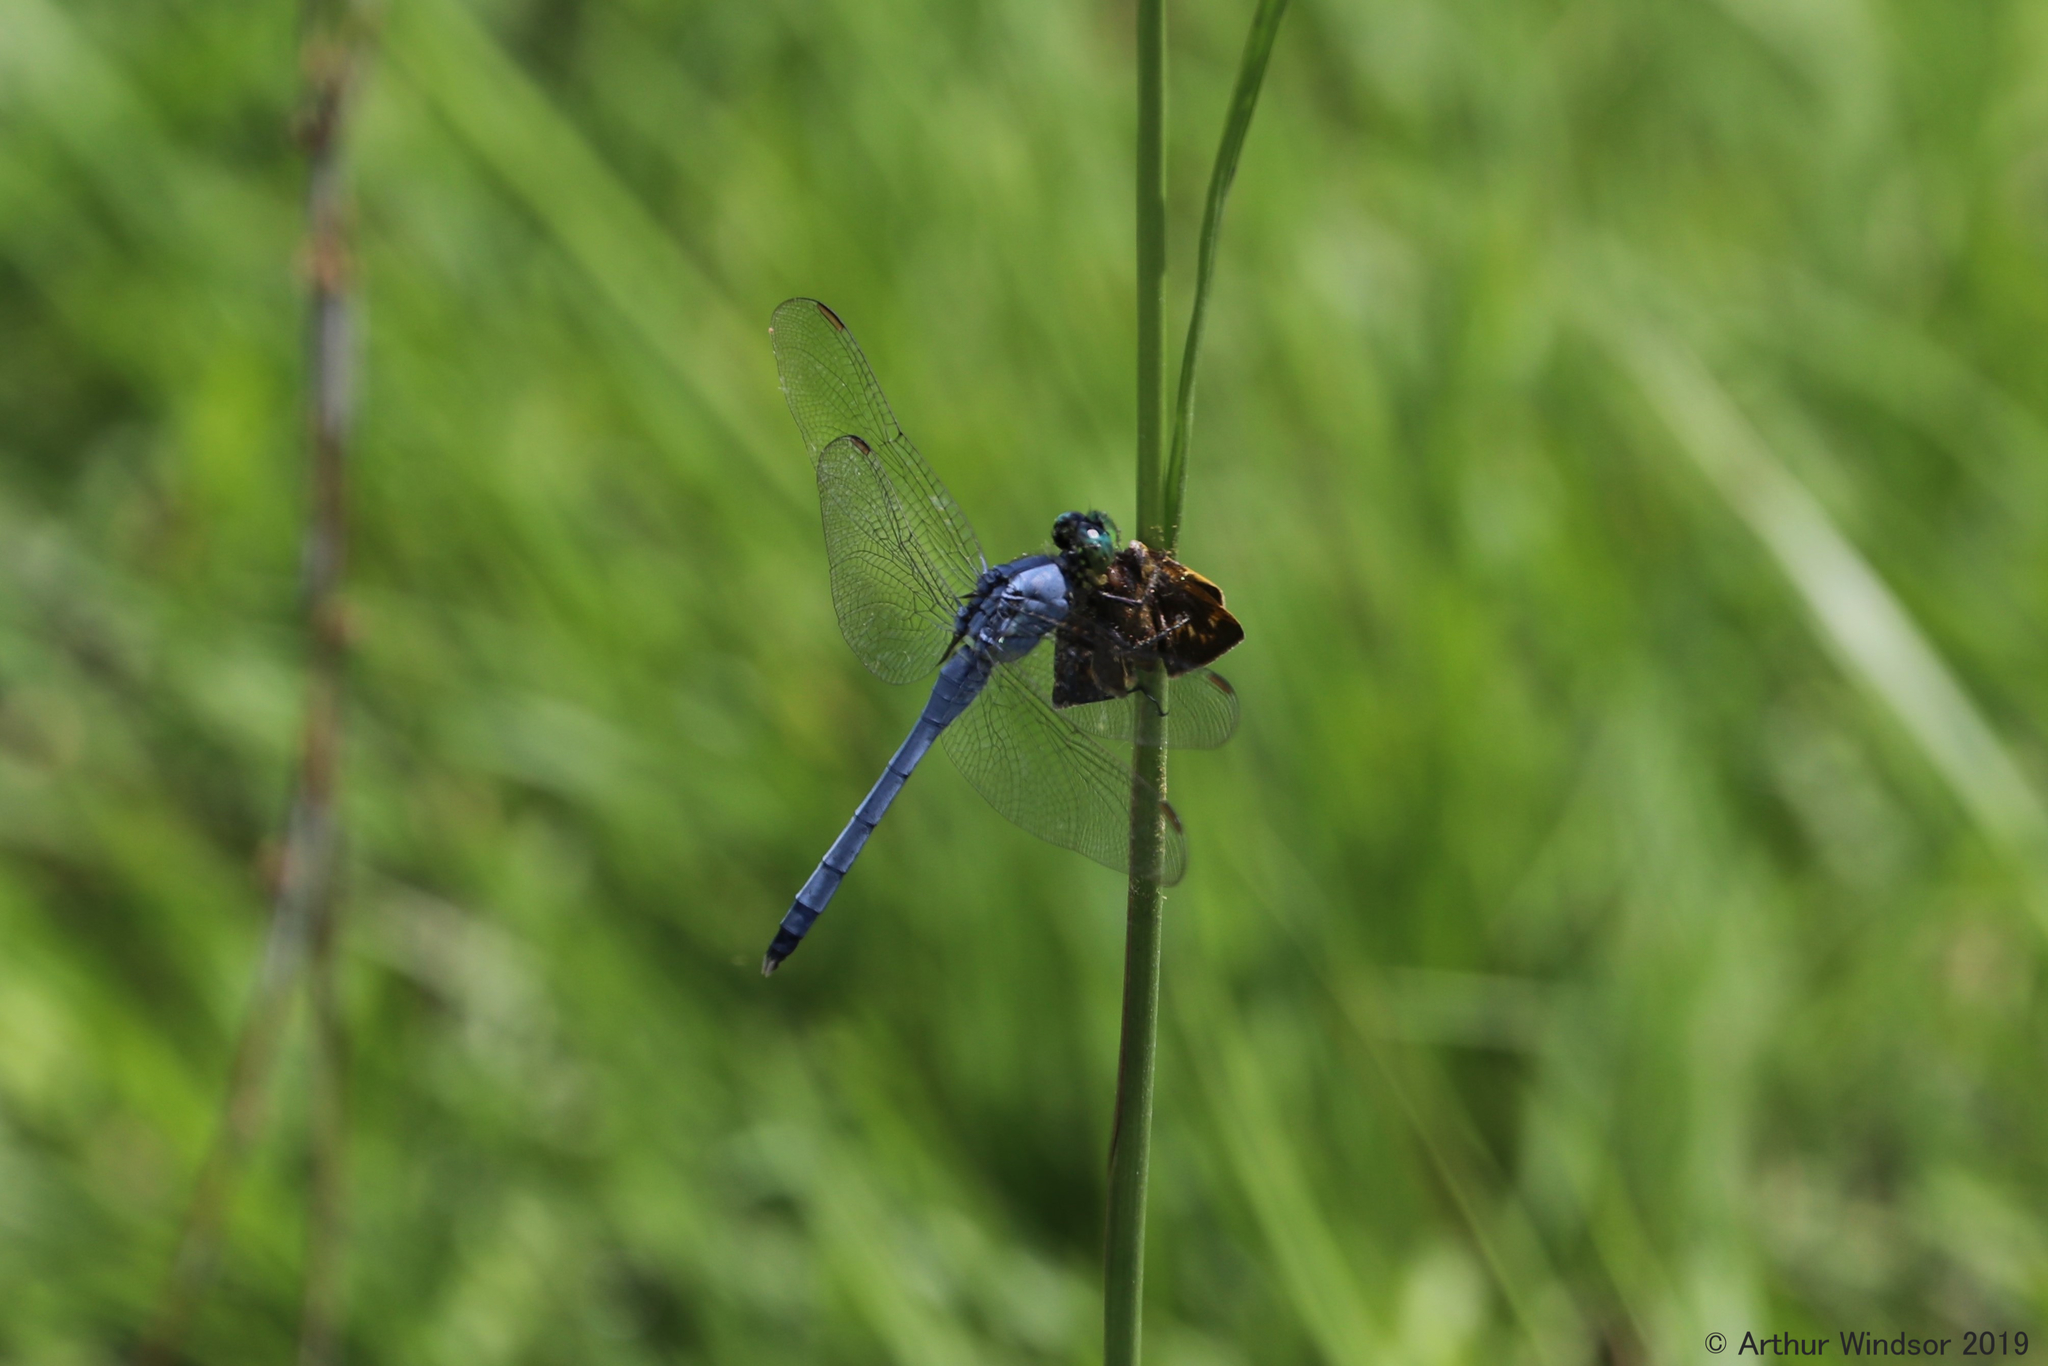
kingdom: Animalia
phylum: Arthropoda
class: Insecta
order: Odonata
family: Libellulidae
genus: Erythemis
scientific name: Erythemis simplicicollis
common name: Eastern pondhawk
